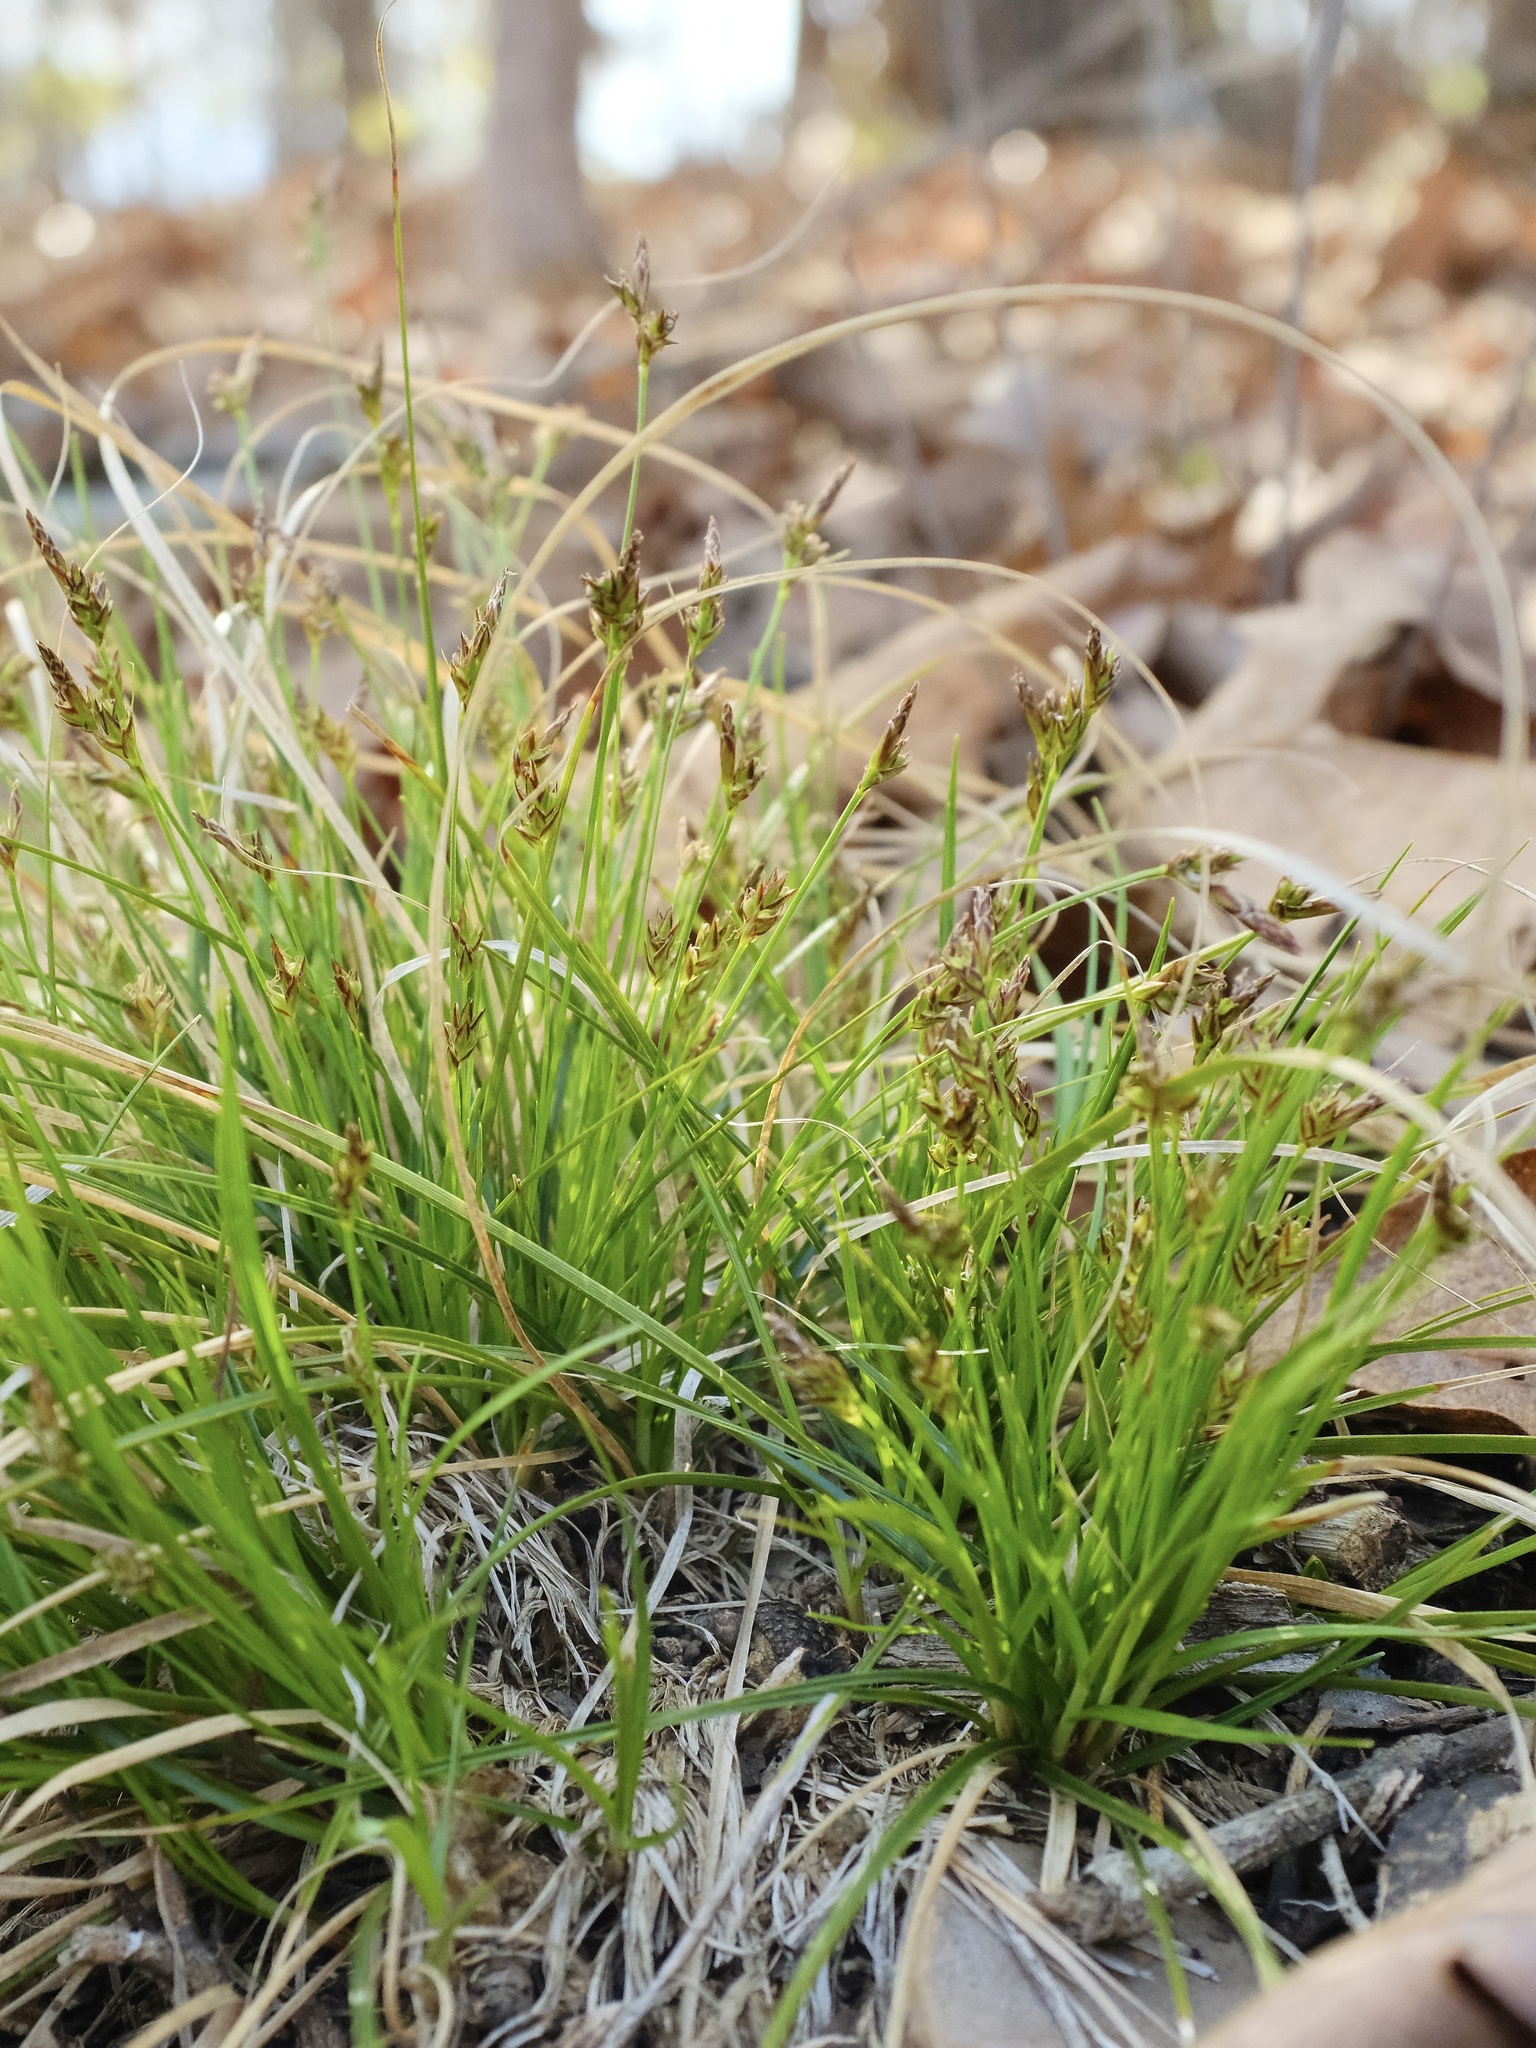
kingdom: Plantae
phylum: Tracheophyta
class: Liliopsida
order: Poales
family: Cyperaceae
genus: Carex
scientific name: Carex umbellata
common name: Early oak sedge
